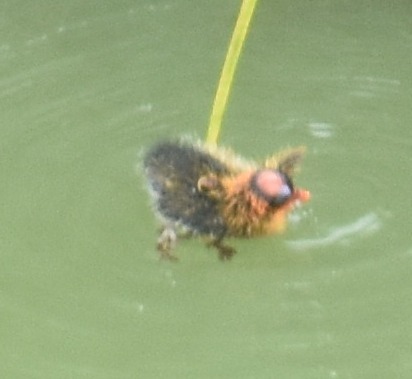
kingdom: Animalia
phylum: Chordata
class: Aves
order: Gruiformes
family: Rallidae
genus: Fulica
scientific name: Fulica americana
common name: American coot
